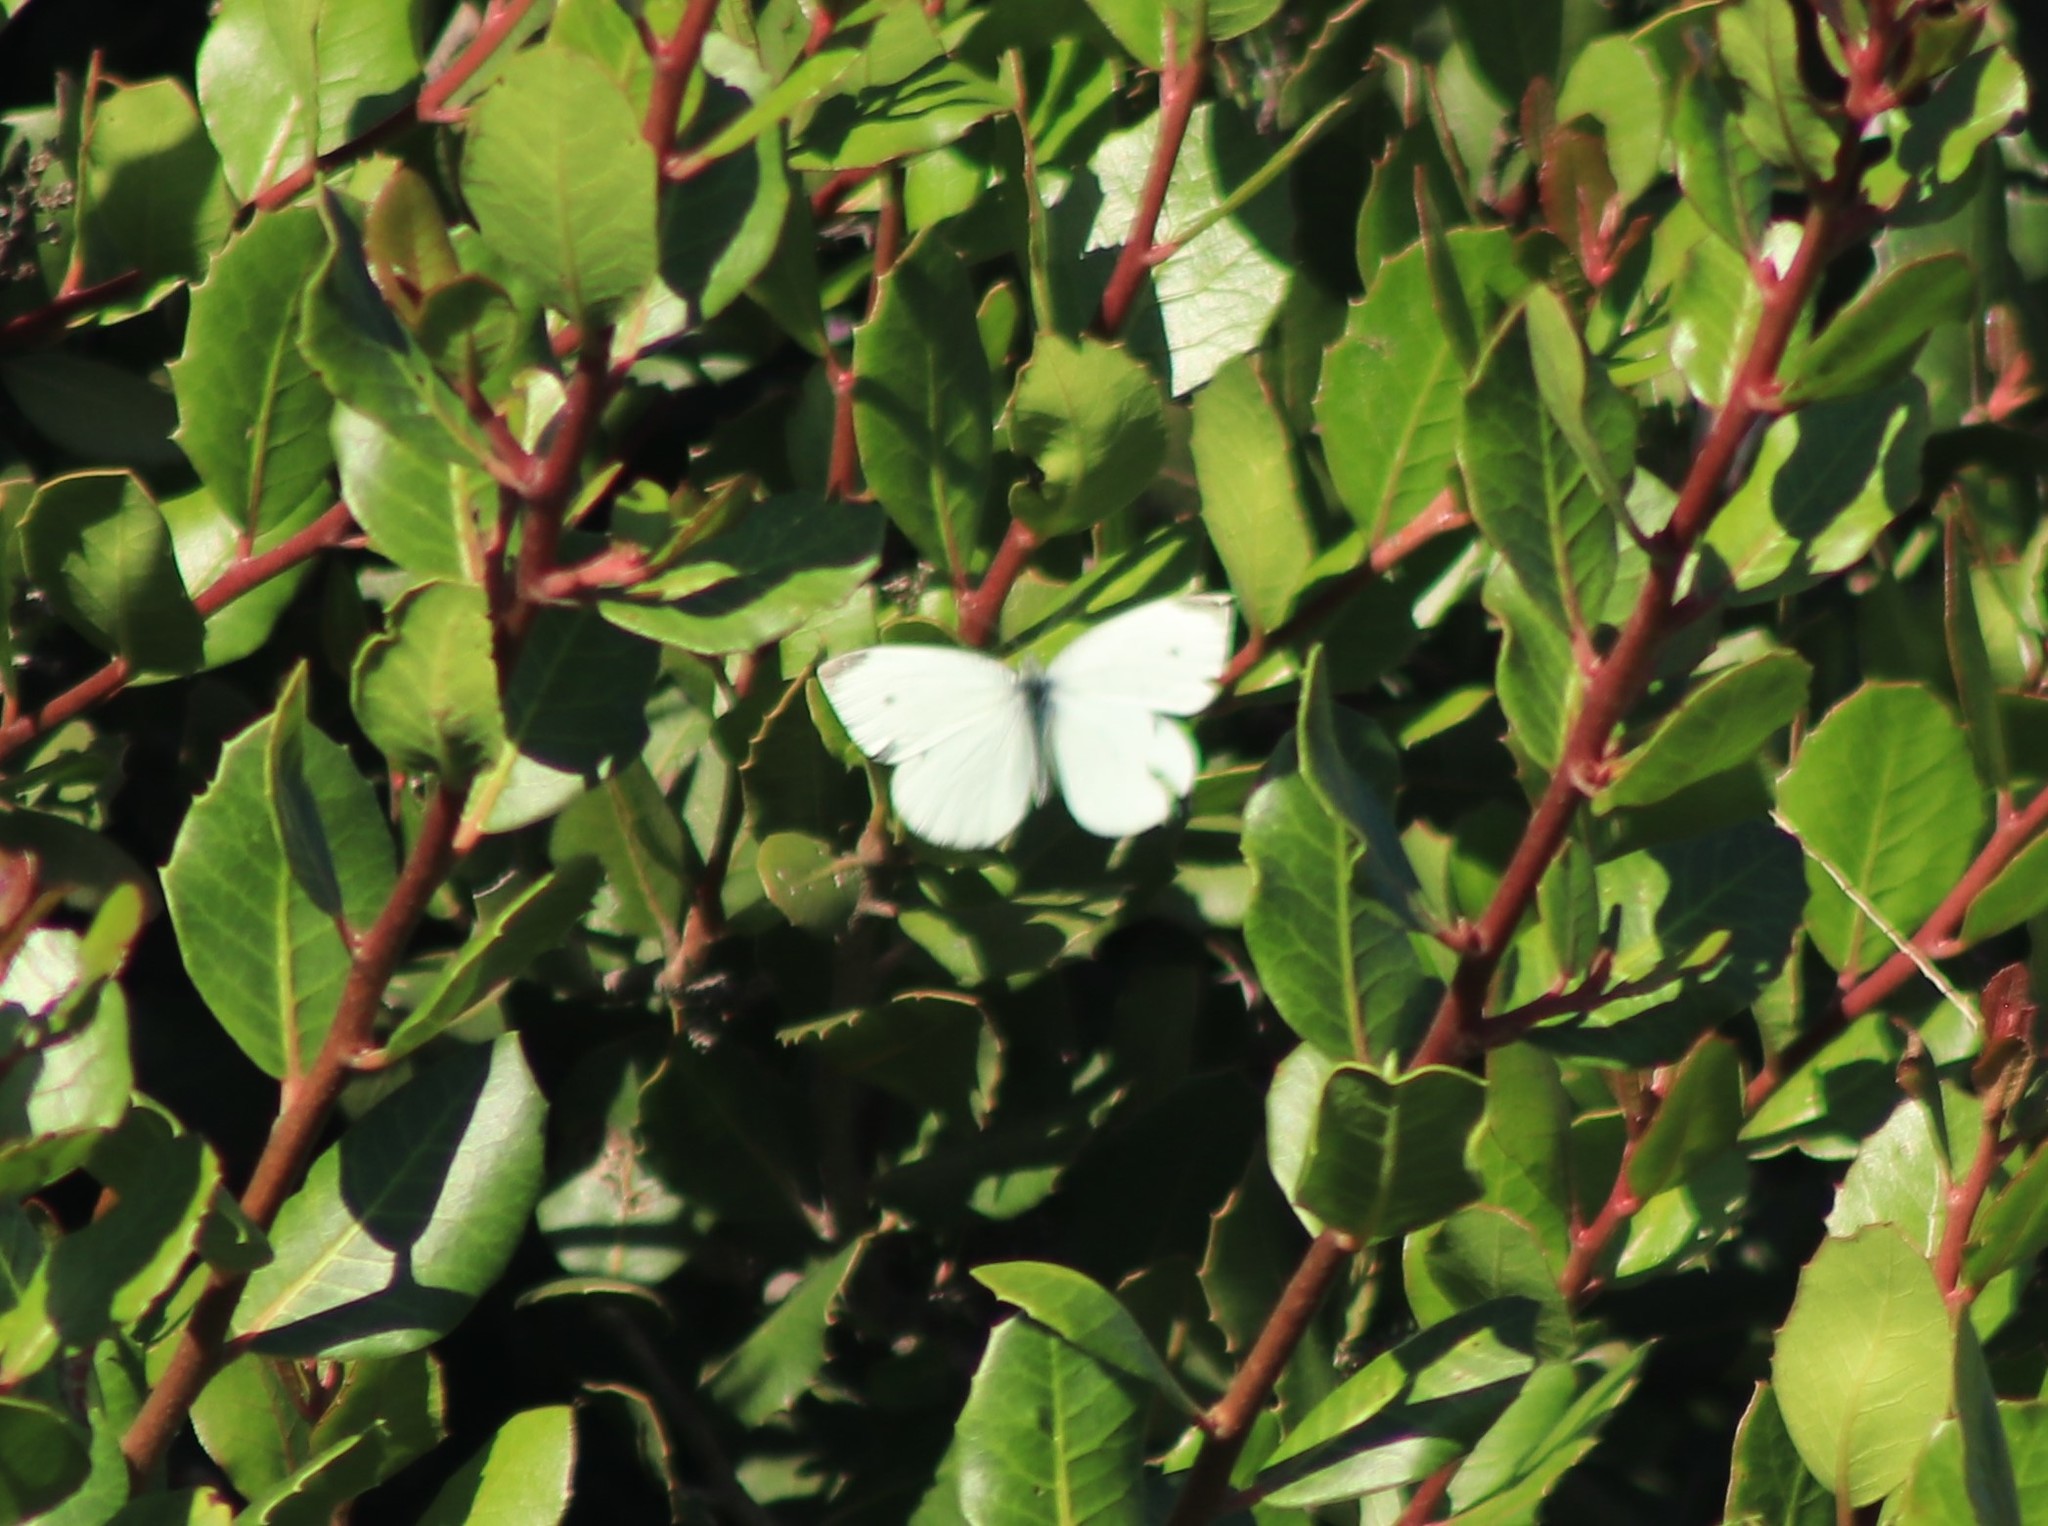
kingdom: Animalia
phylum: Arthropoda
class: Insecta
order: Lepidoptera
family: Pieridae
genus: Pieris
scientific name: Pieris rapae
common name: Small white
